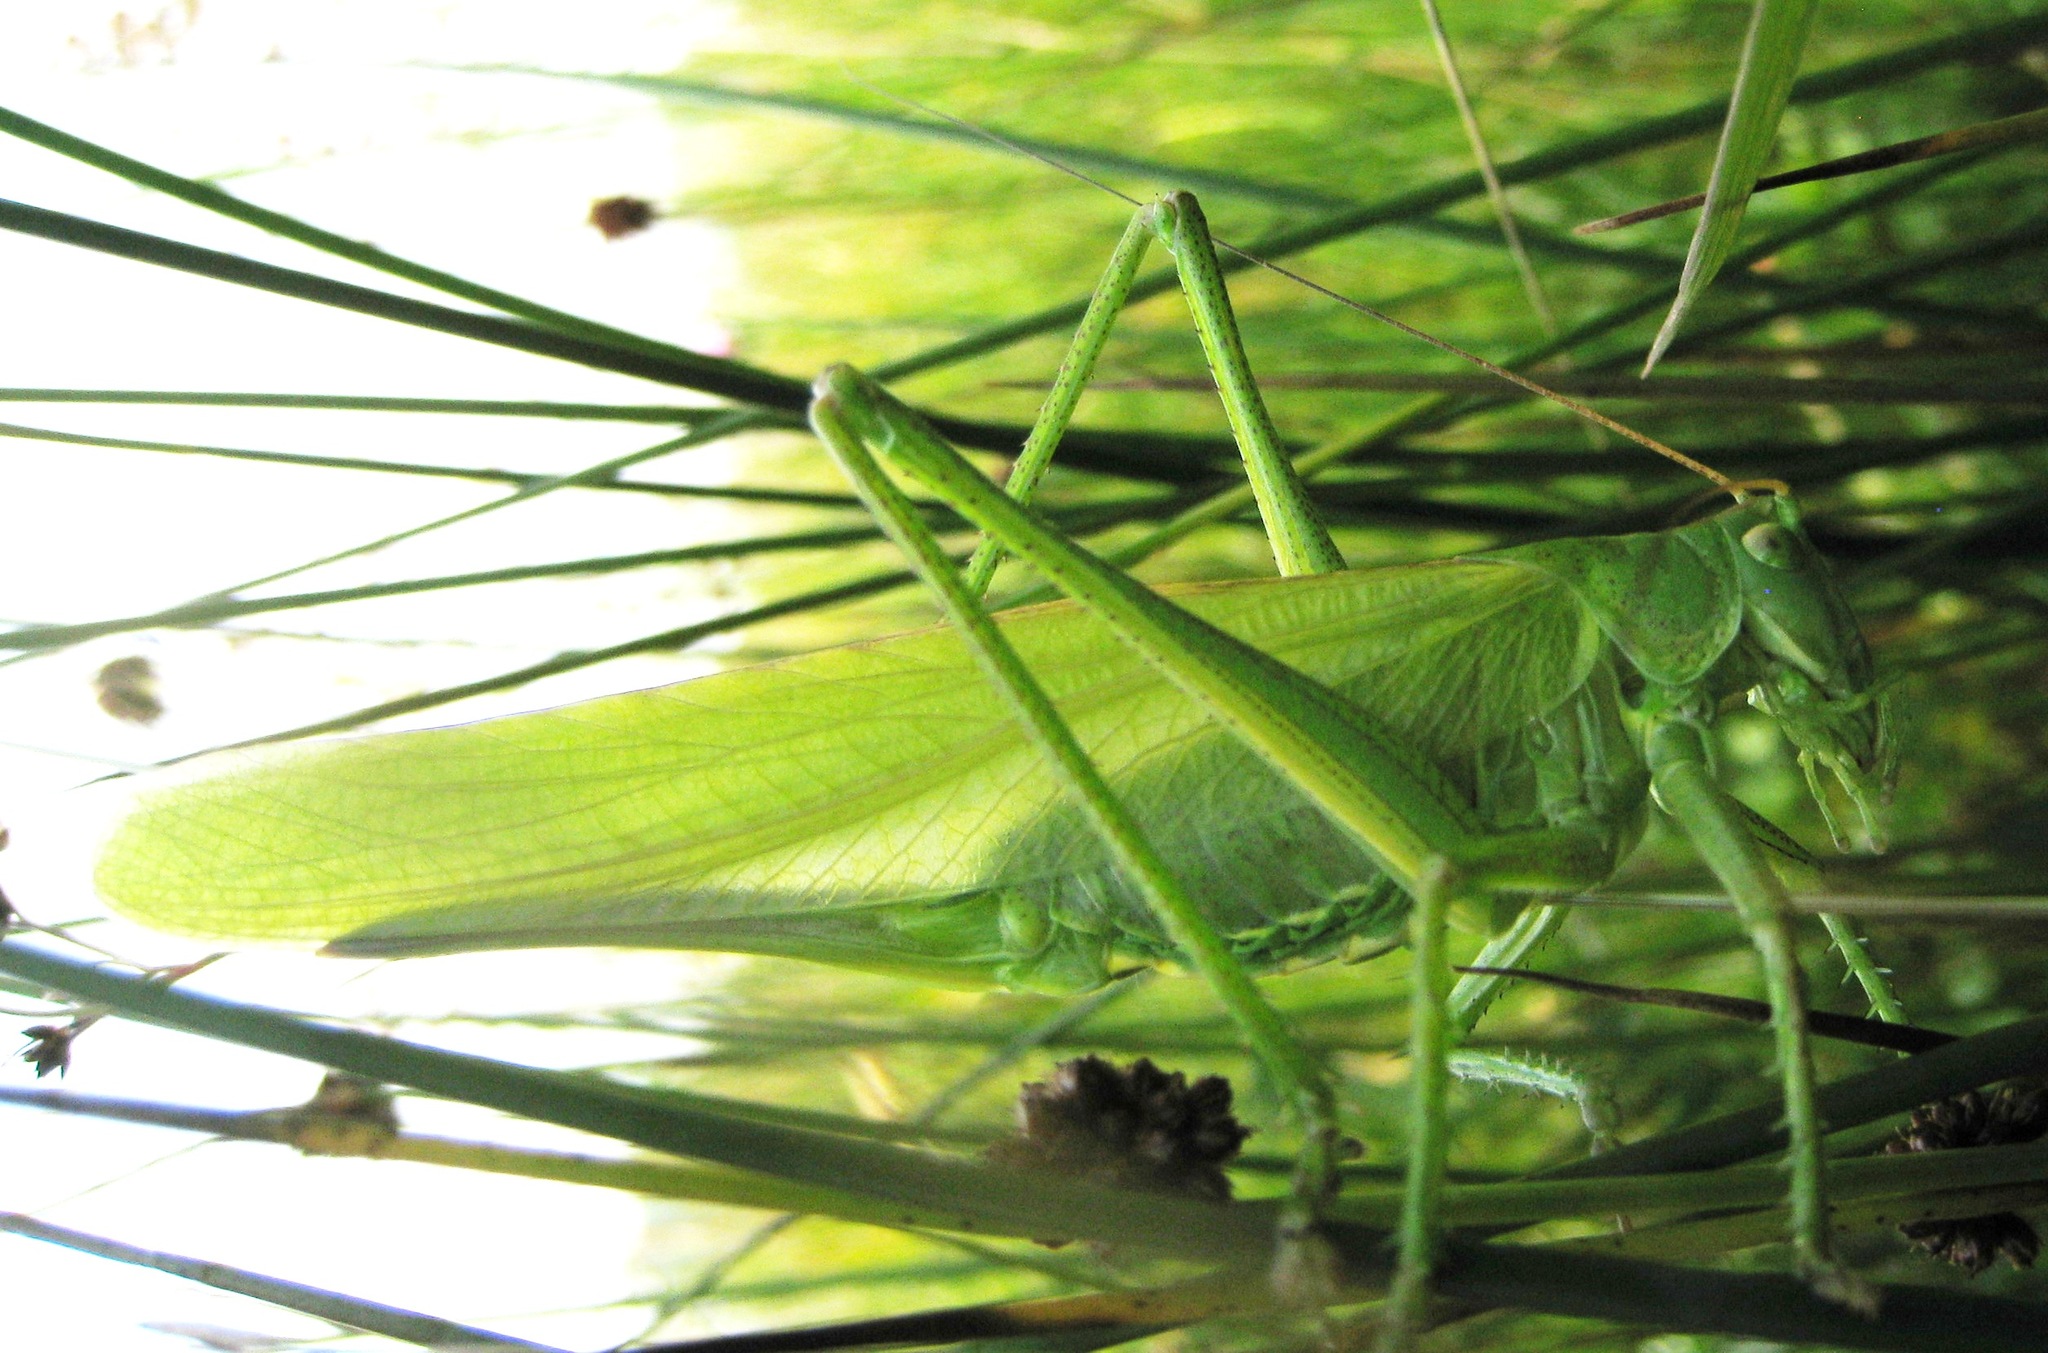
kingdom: Animalia
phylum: Arthropoda
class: Insecta
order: Orthoptera
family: Tettigoniidae
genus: Tettigonia
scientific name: Tettigonia viridissima
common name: Great green bush-cricket
